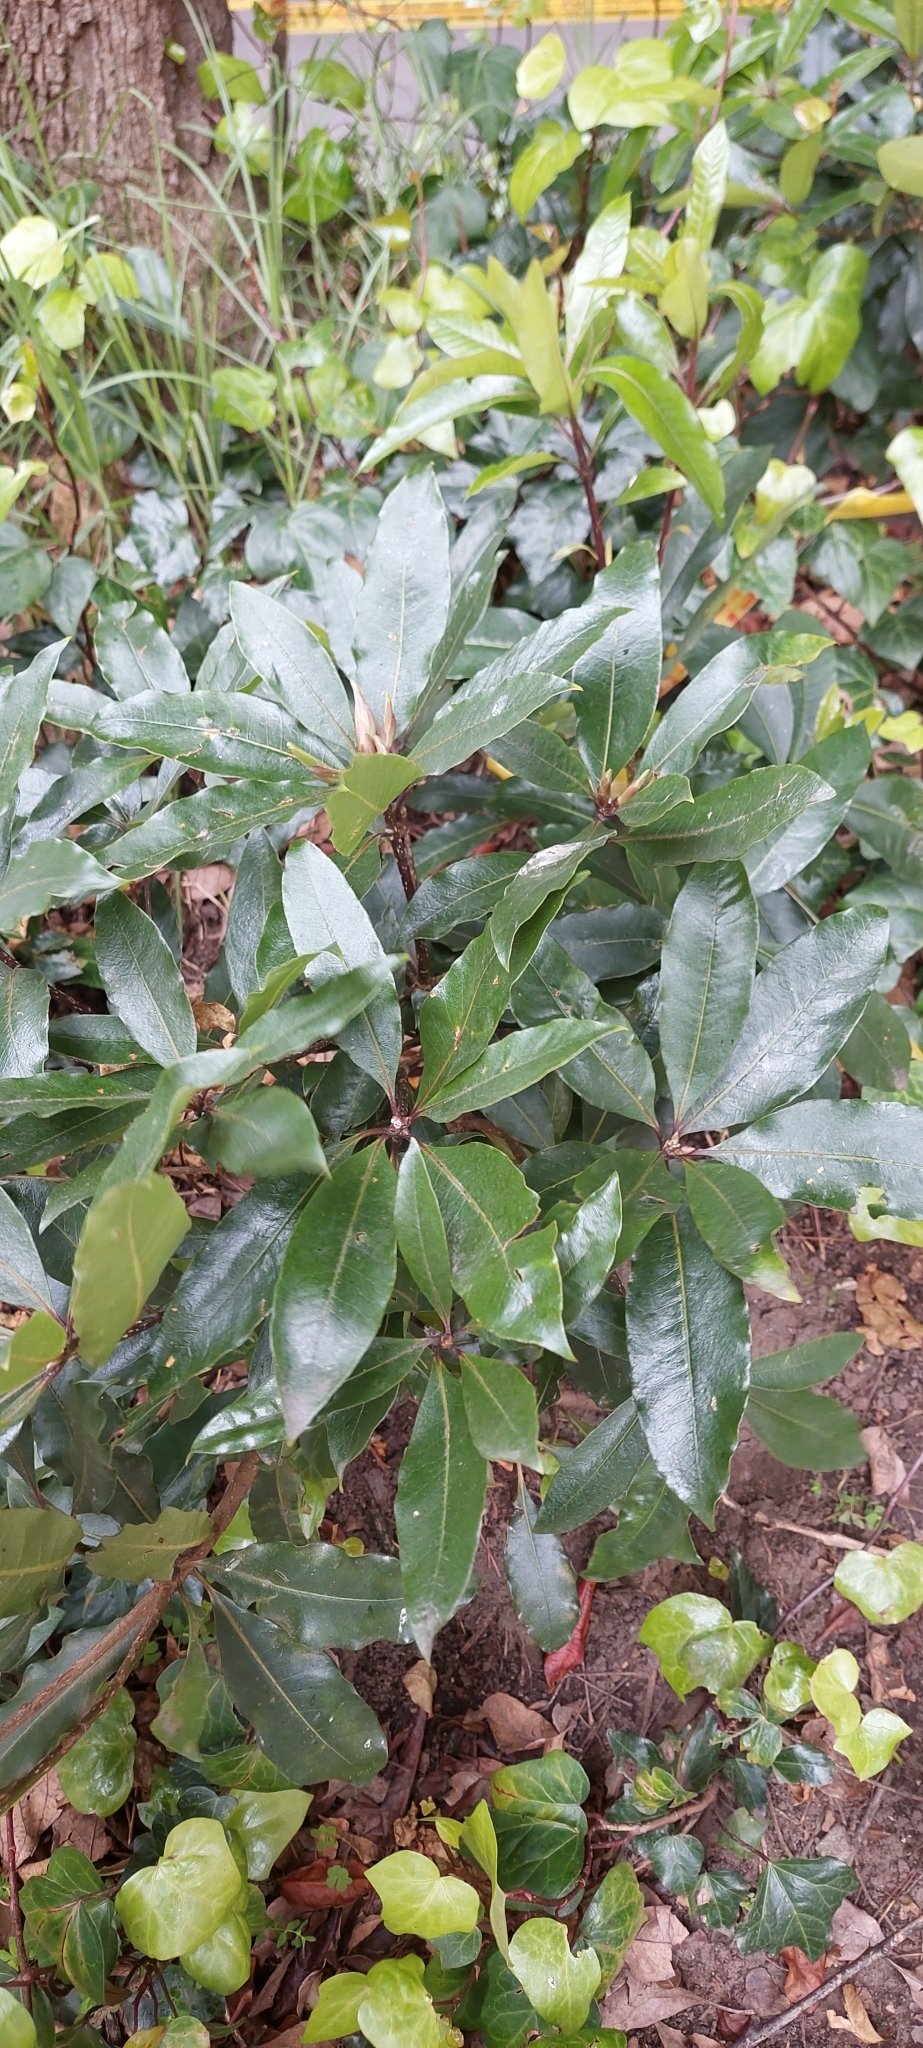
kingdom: Plantae
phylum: Tracheophyta
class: Magnoliopsida
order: Apiales
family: Pittosporaceae
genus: Pittosporum
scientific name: Pittosporum undulatum
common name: Australian cheesewood
